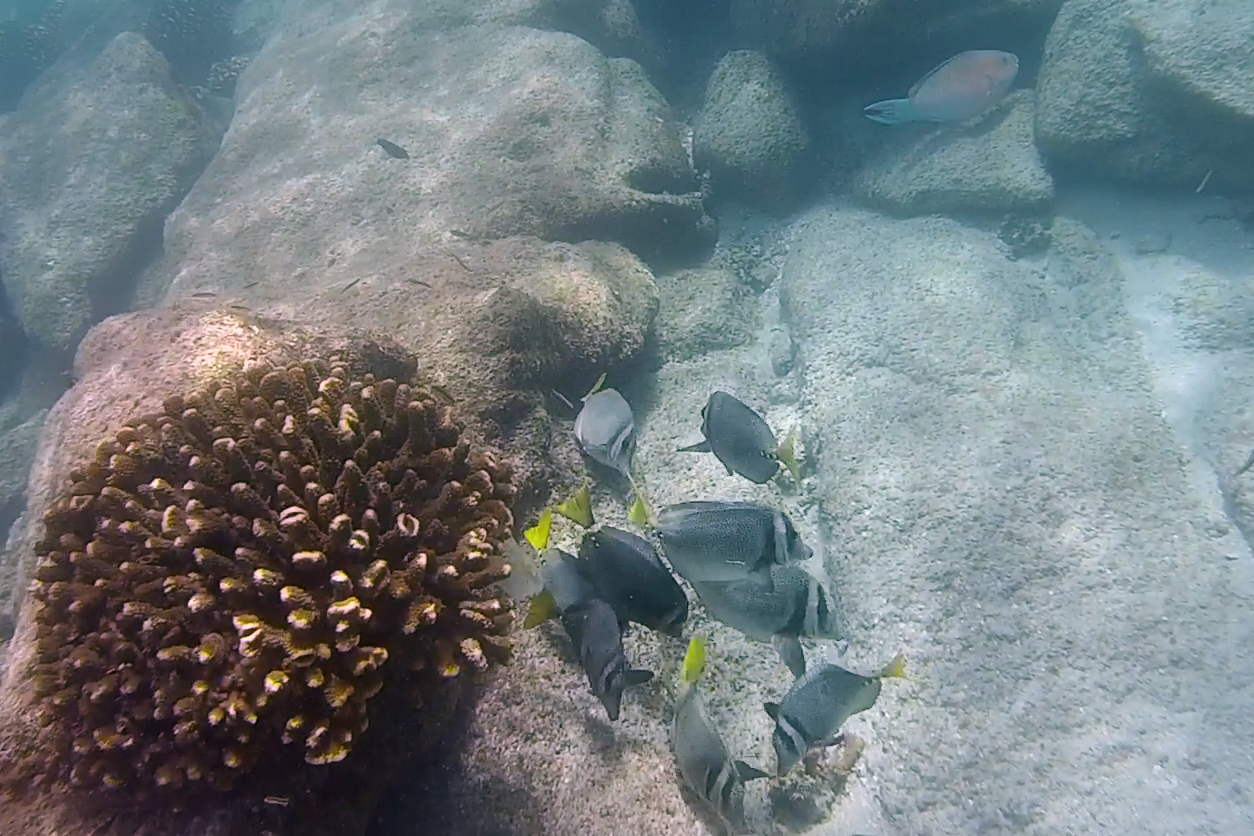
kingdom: Animalia
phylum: Chordata
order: Perciformes
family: Acanthuridae
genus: Prionurus
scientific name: Prionurus laticlavius
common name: Razor surgeonfish
